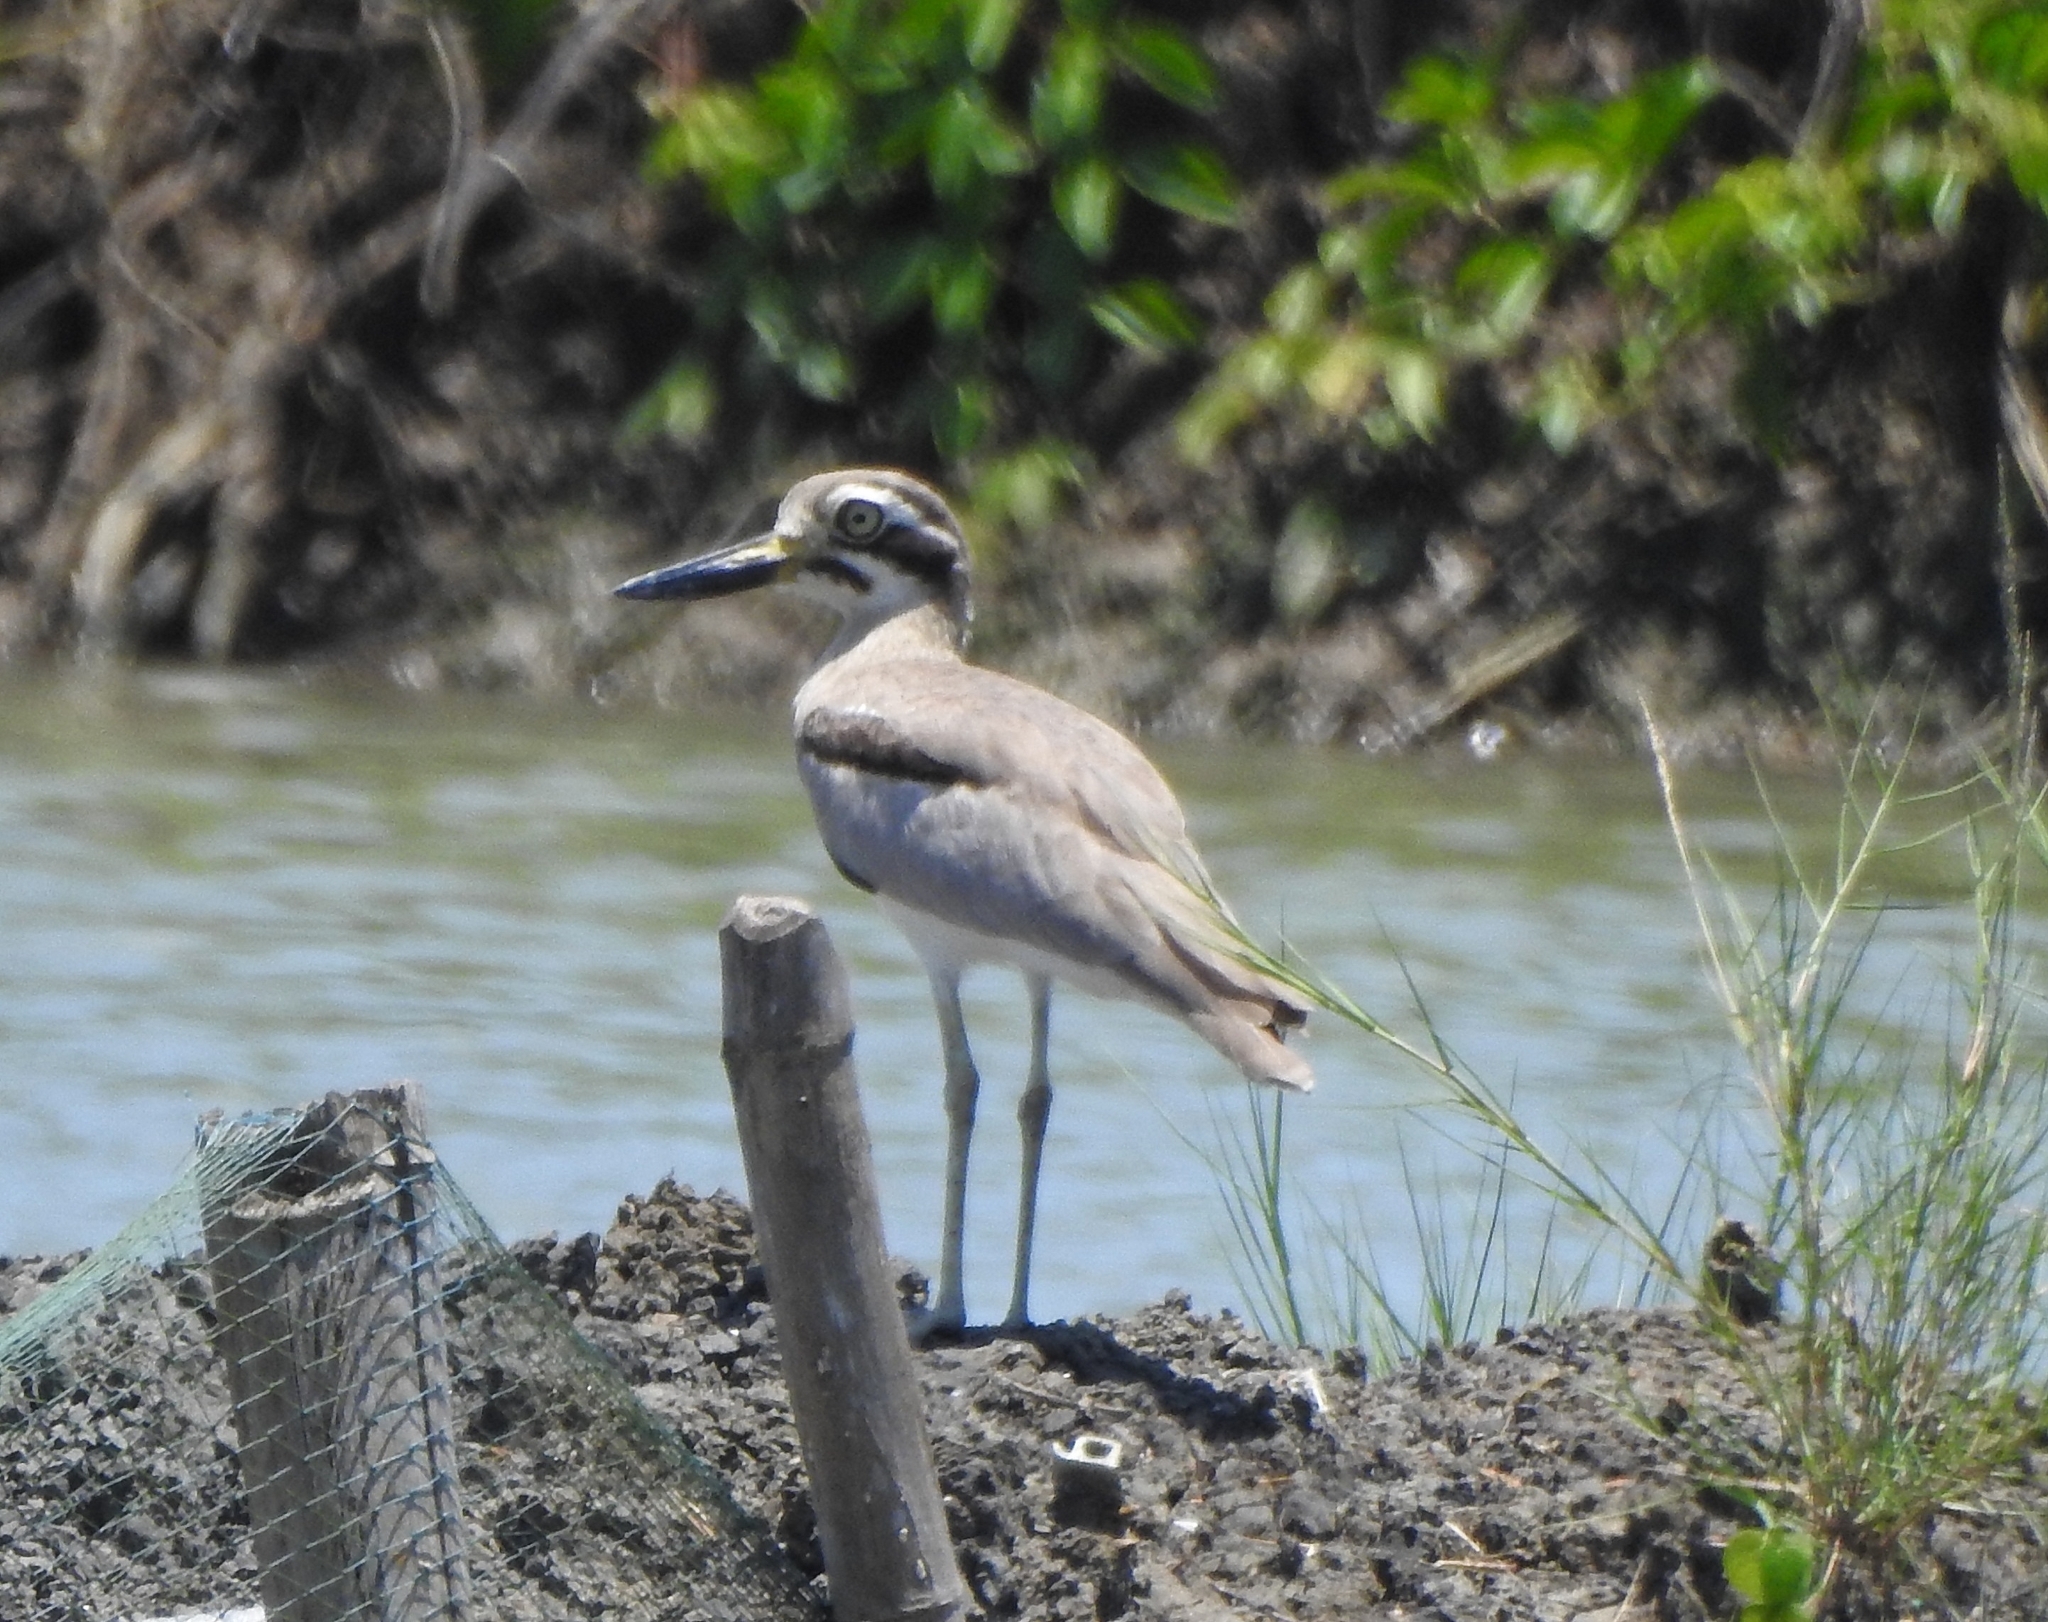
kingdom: Animalia
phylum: Chordata
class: Aves
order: Charadriiformes
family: Burhinidae
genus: Esacus
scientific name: Esacus recurvirostris
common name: Great stone-curlew
